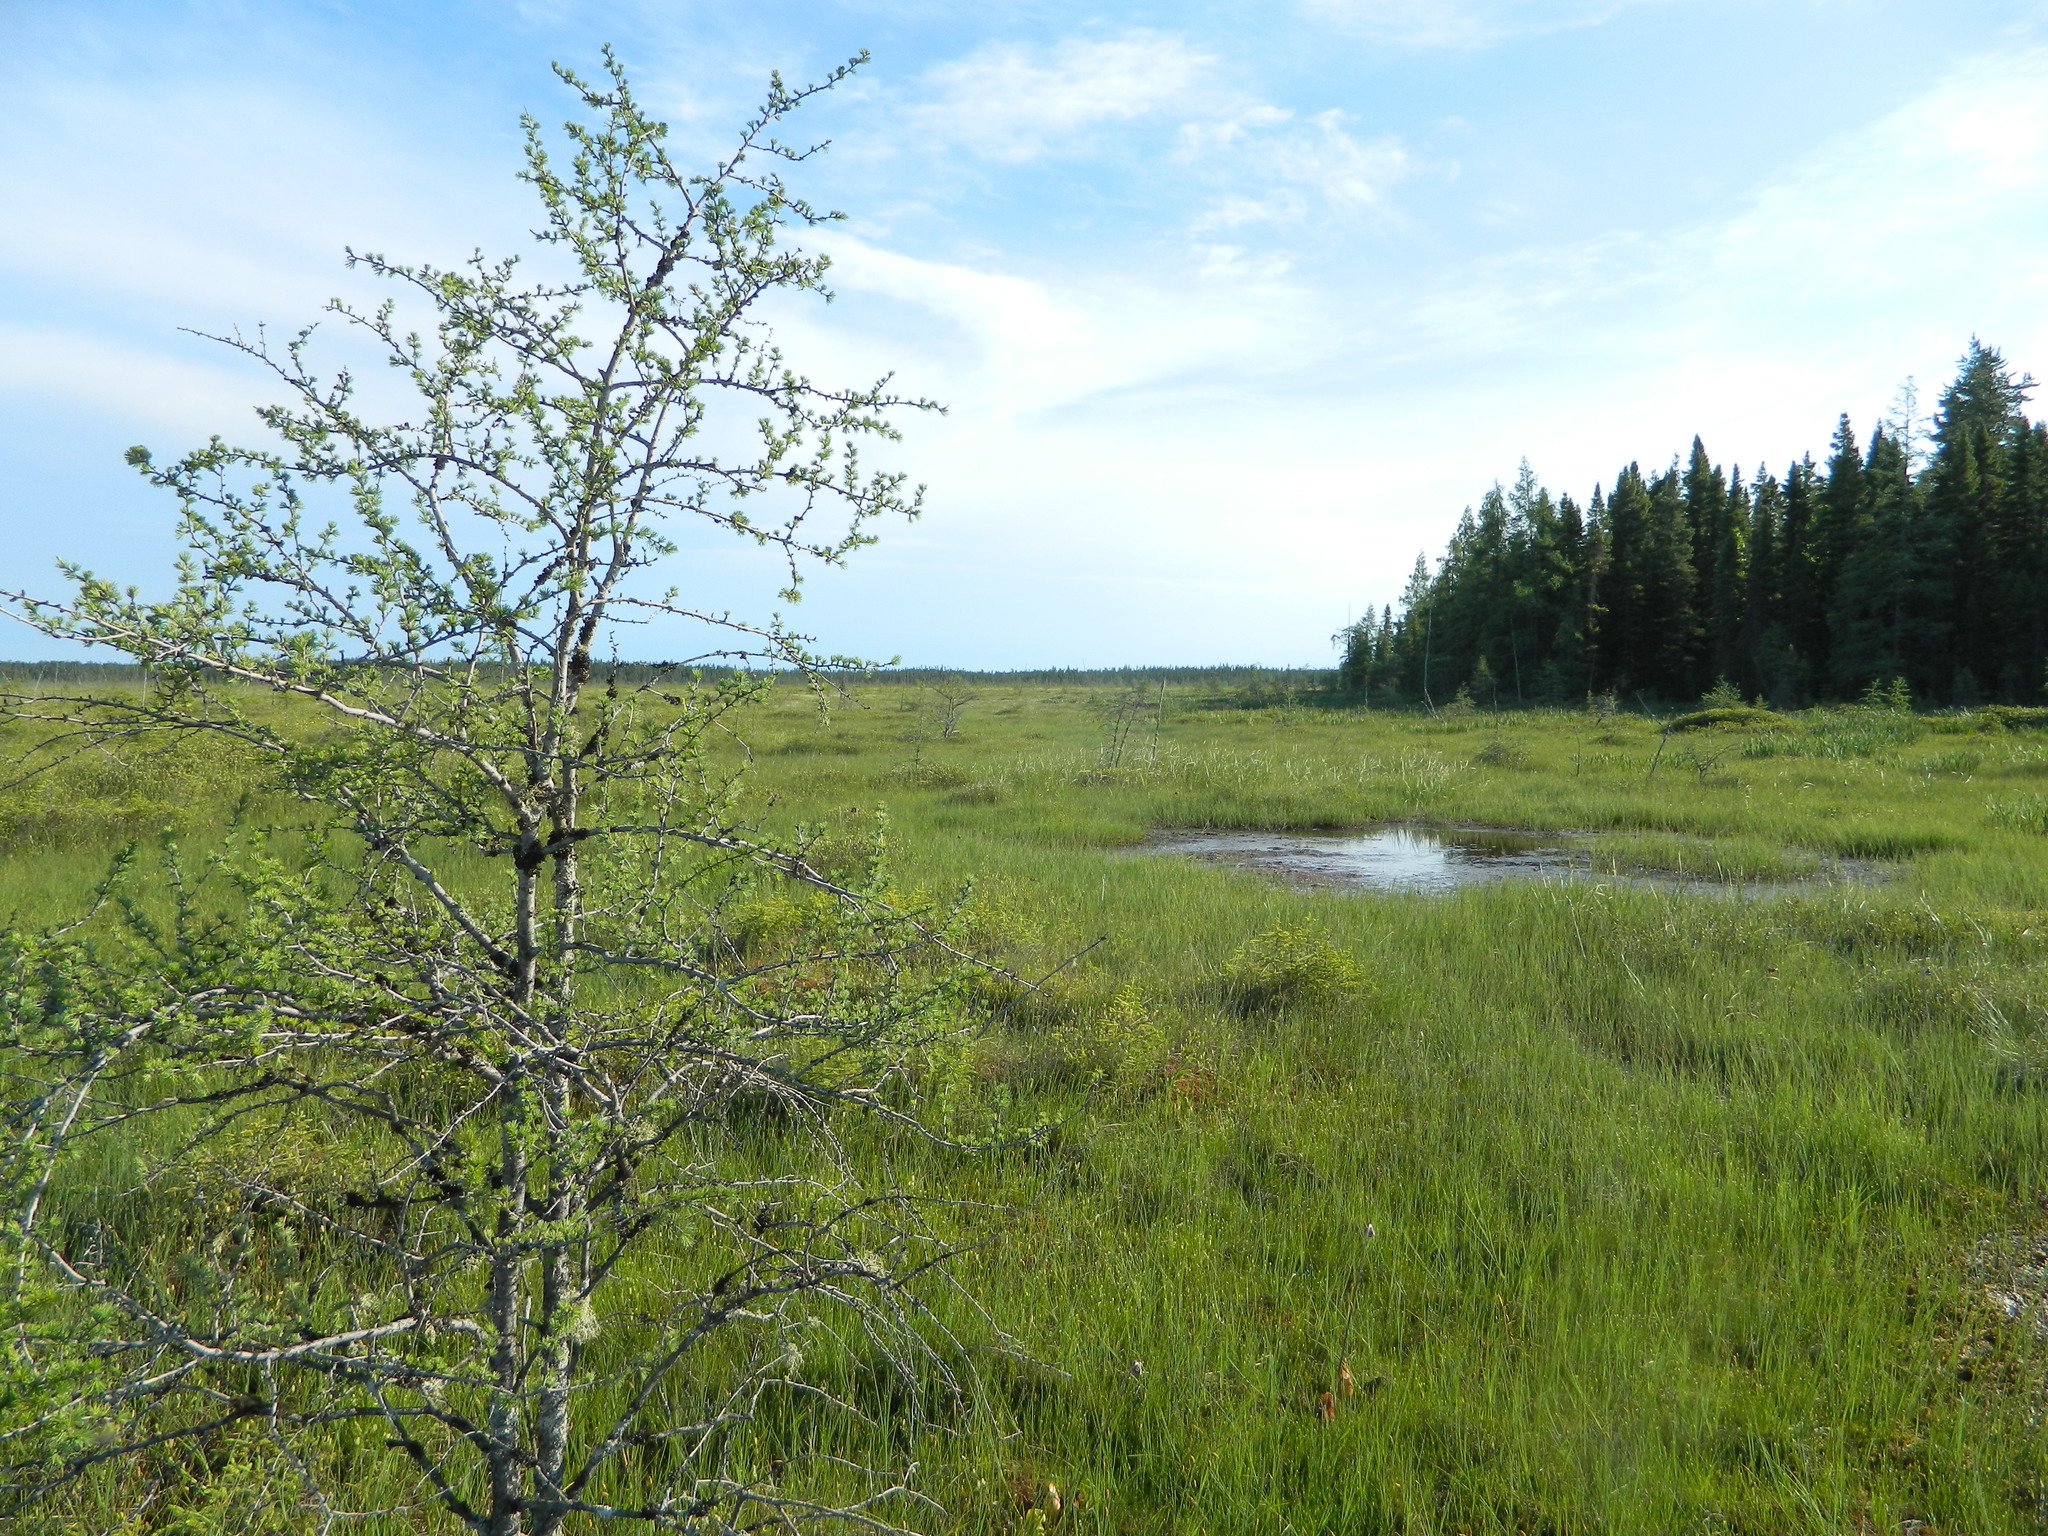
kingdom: Plantae
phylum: Tracheophyta
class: Pinopsida
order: Pinales
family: Pinaceae
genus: Larix
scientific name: Larix laricina
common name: American larch
